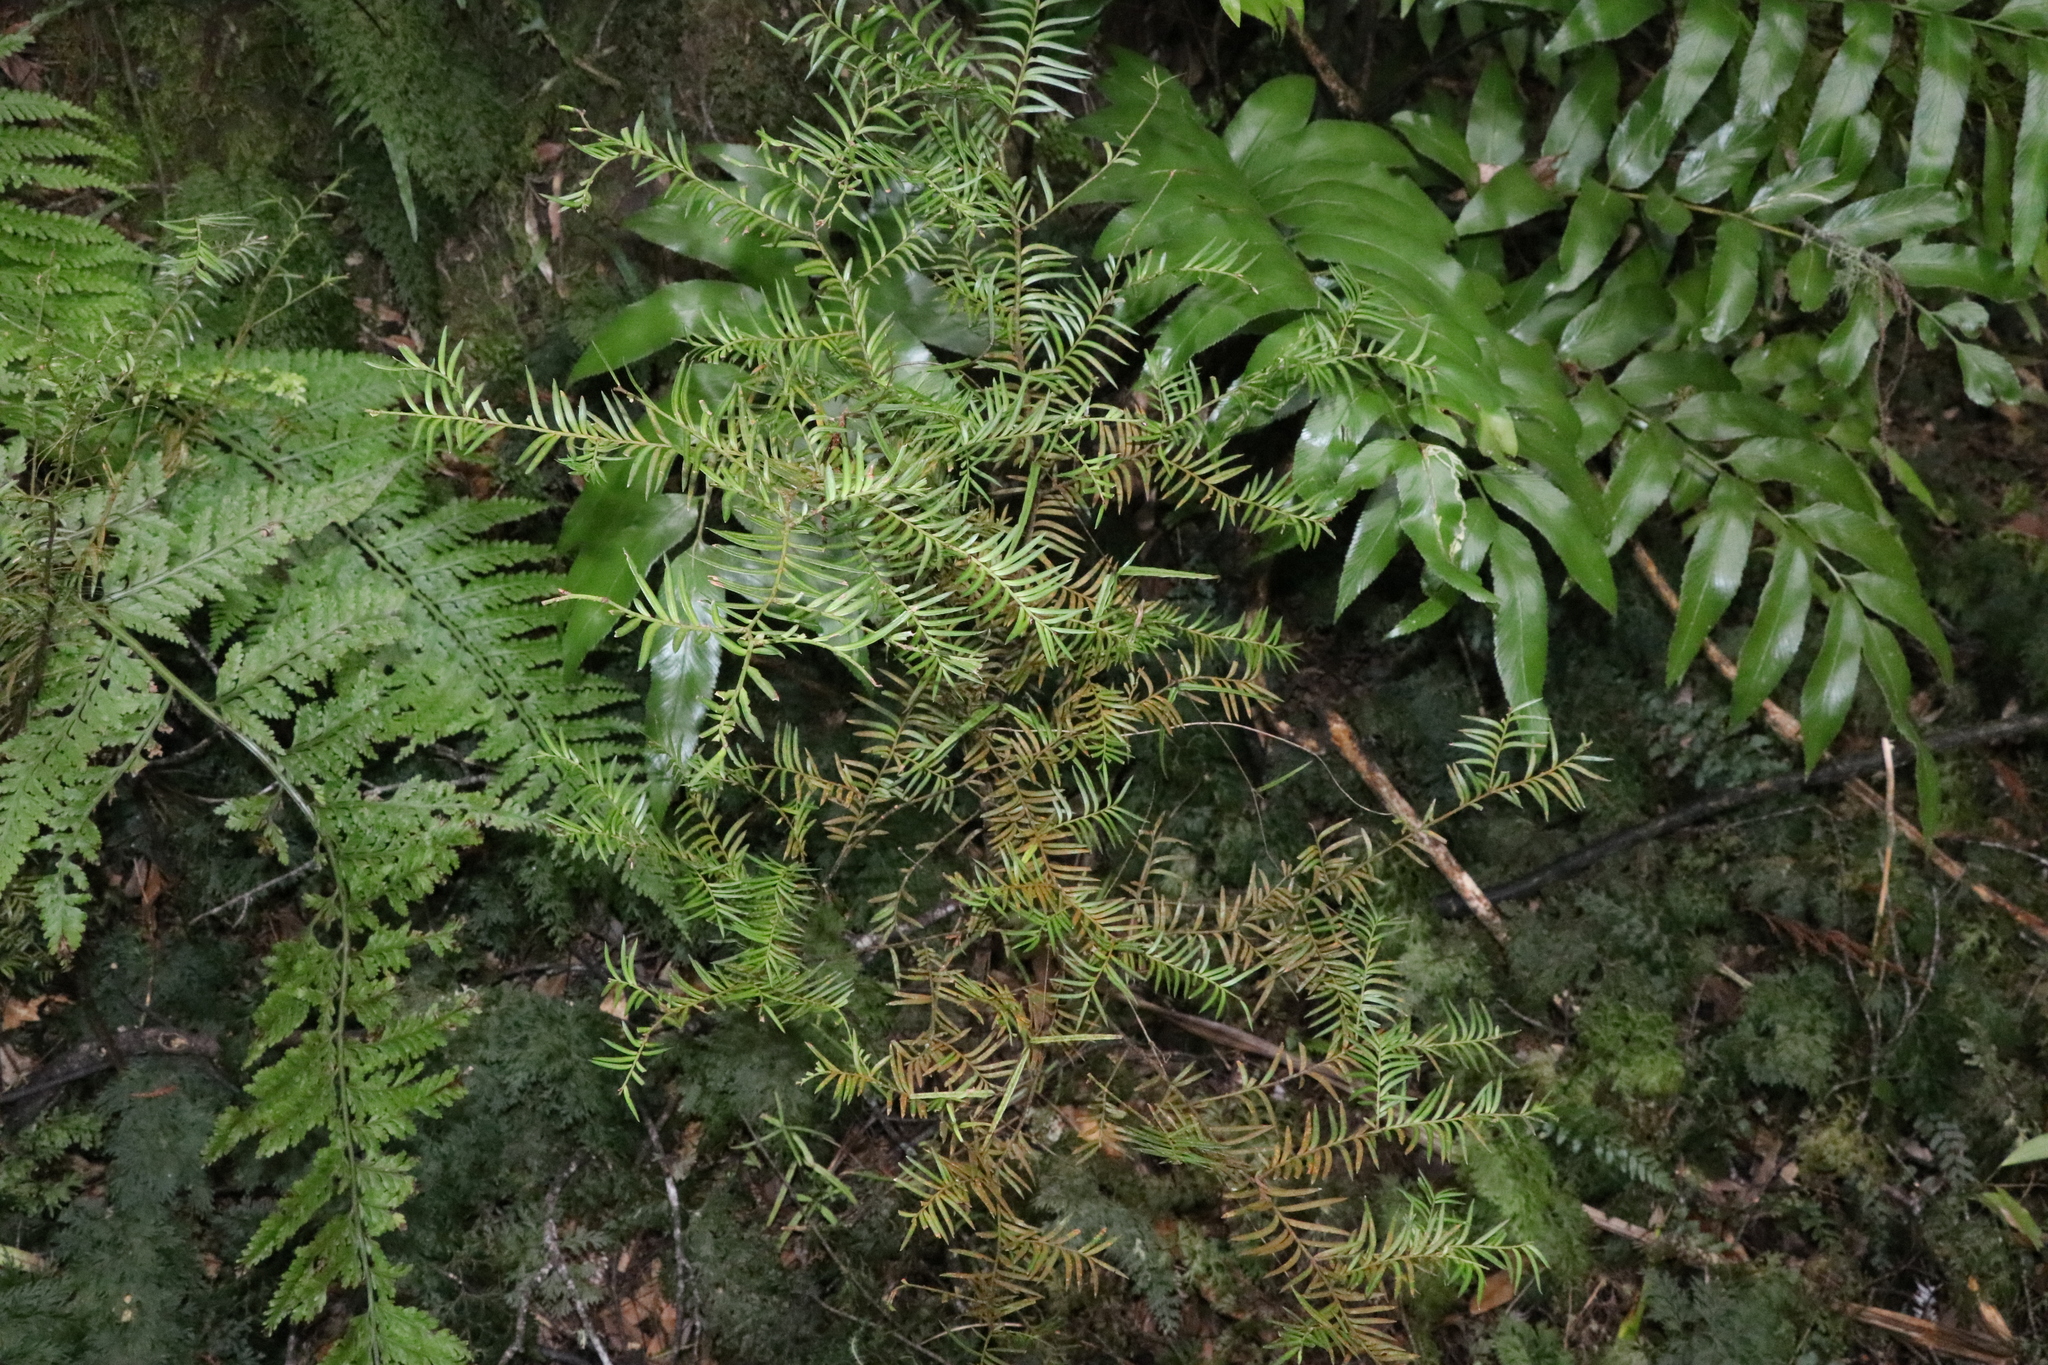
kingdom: Plantae
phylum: Tracheophyta
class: Pinopsida
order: Pinales
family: Podocarpaceae
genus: Prumnopitys
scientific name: Prumnopitys ferruginea
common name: Brown pine
